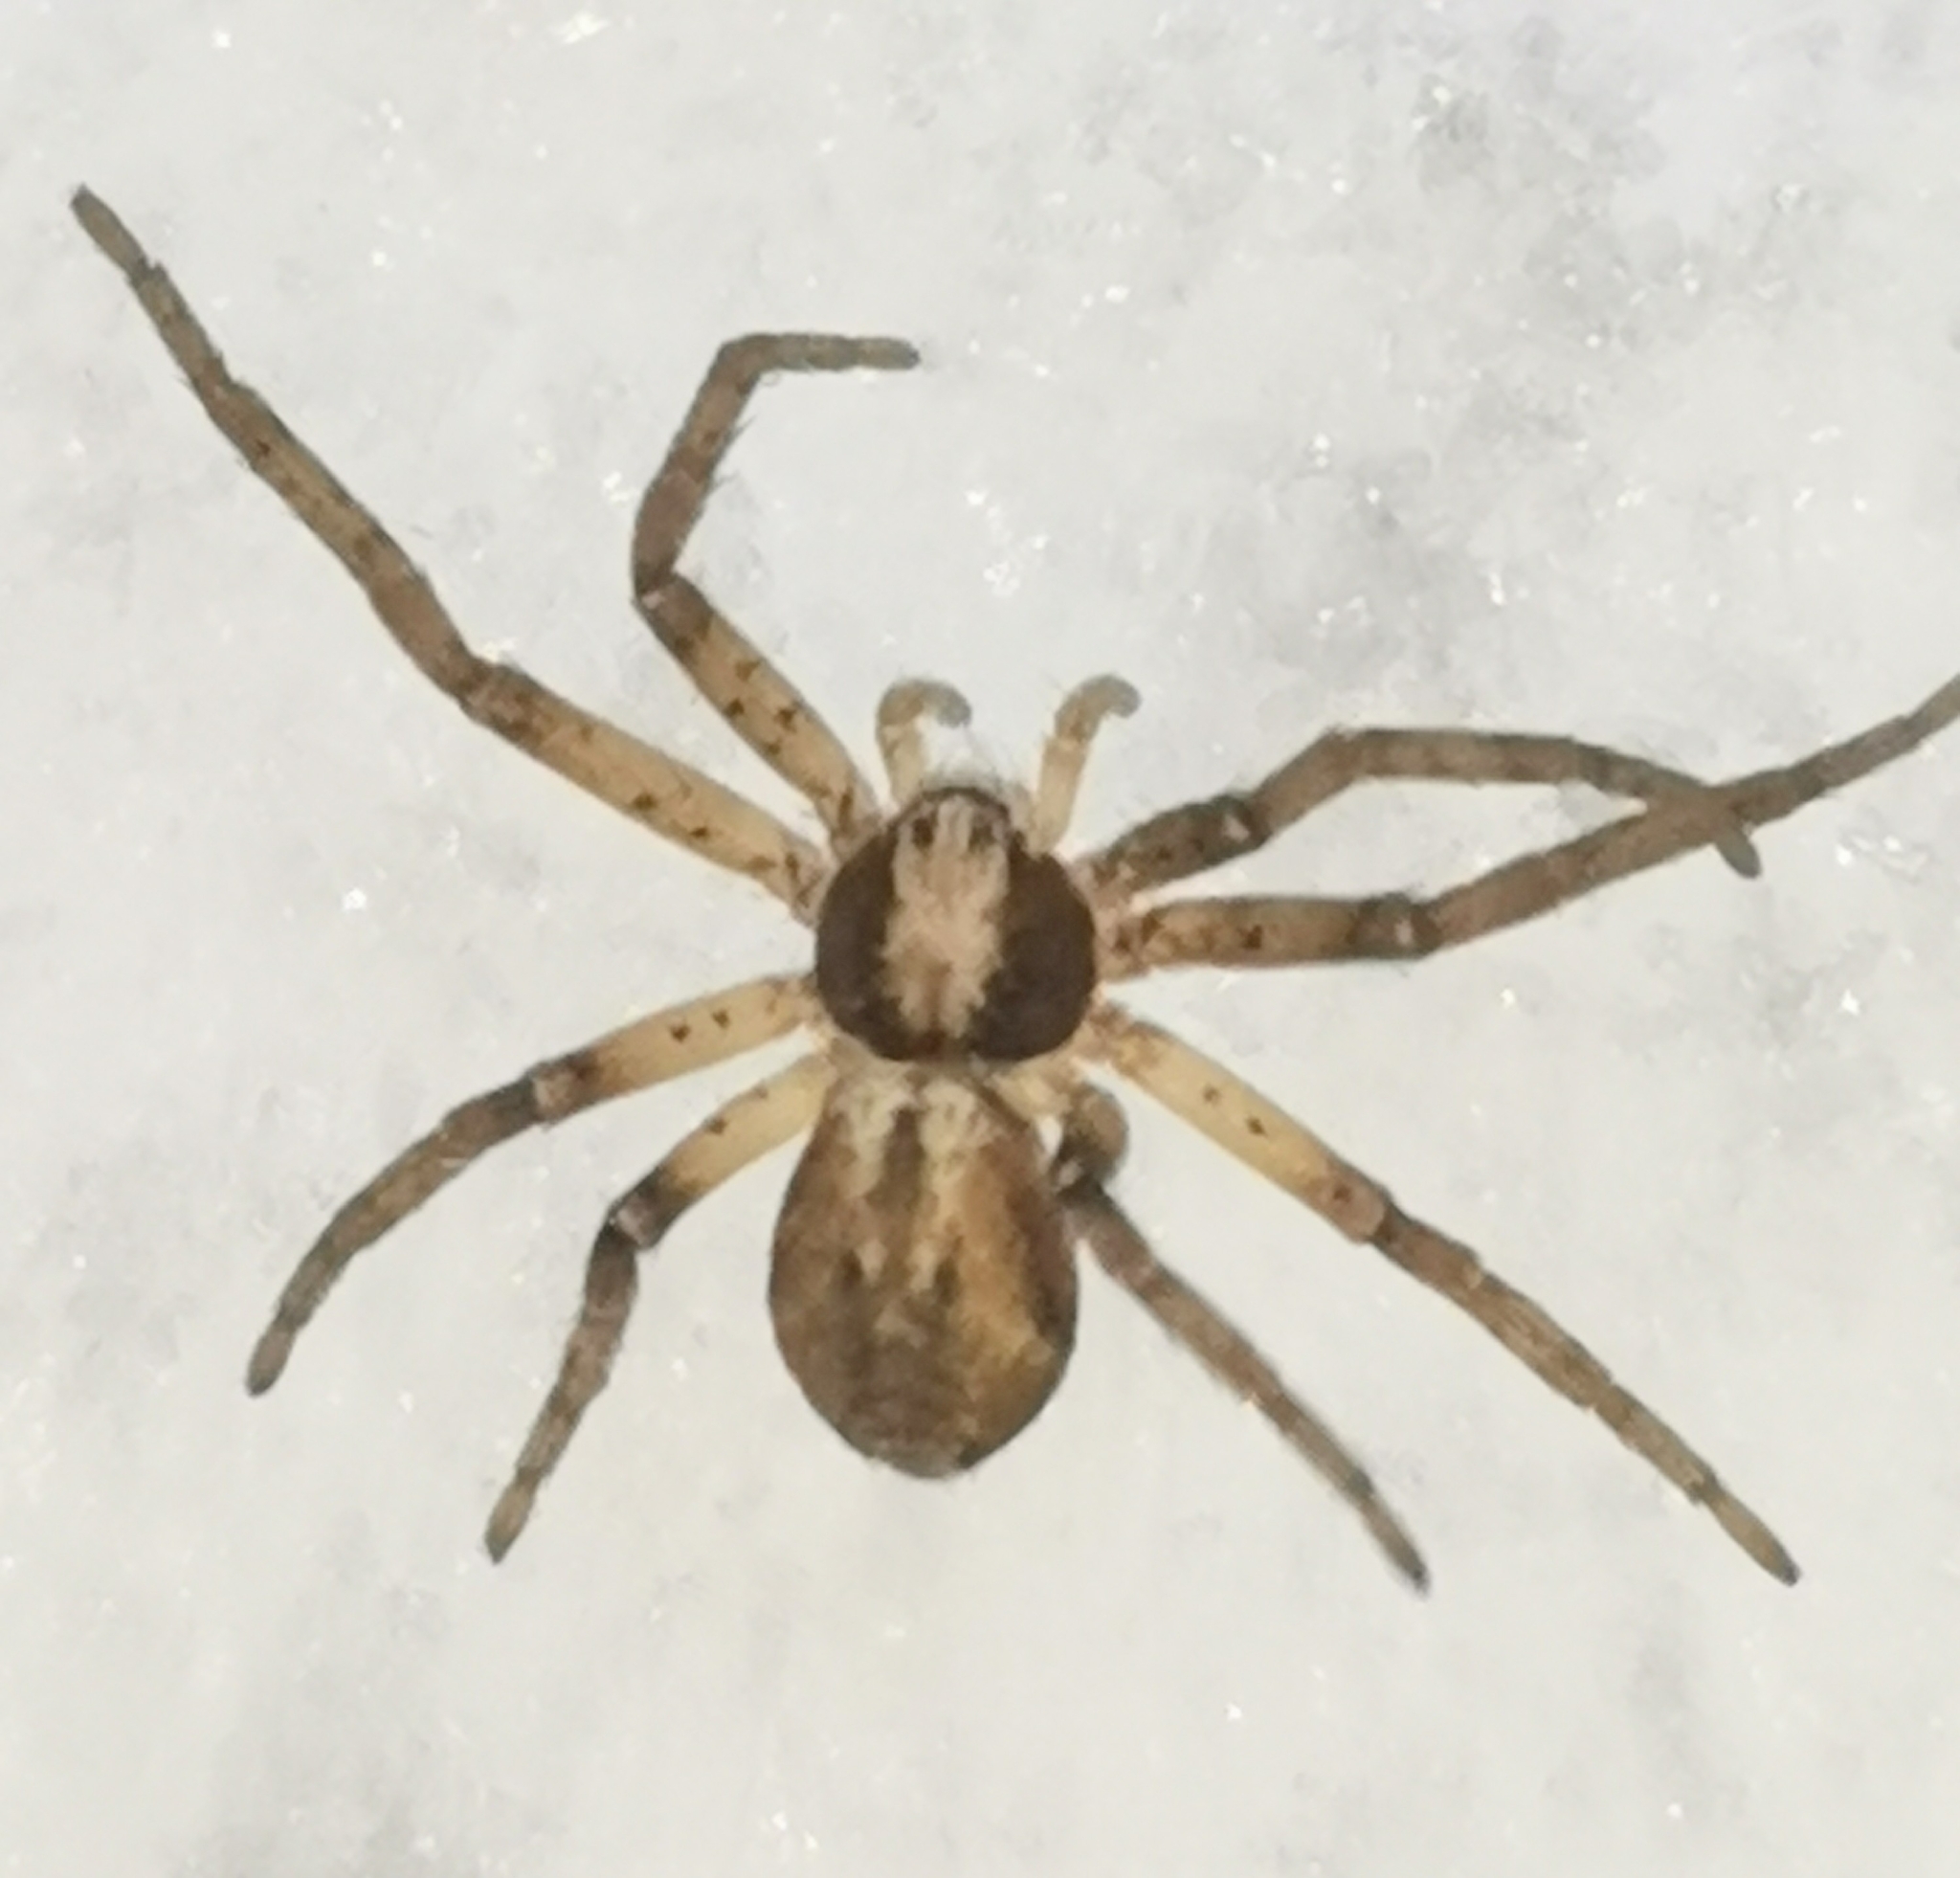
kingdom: Animalia
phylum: Arthropoda
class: Arachnida
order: Araneae
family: Philodromidae
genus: Philodromus
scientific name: Philodromus
